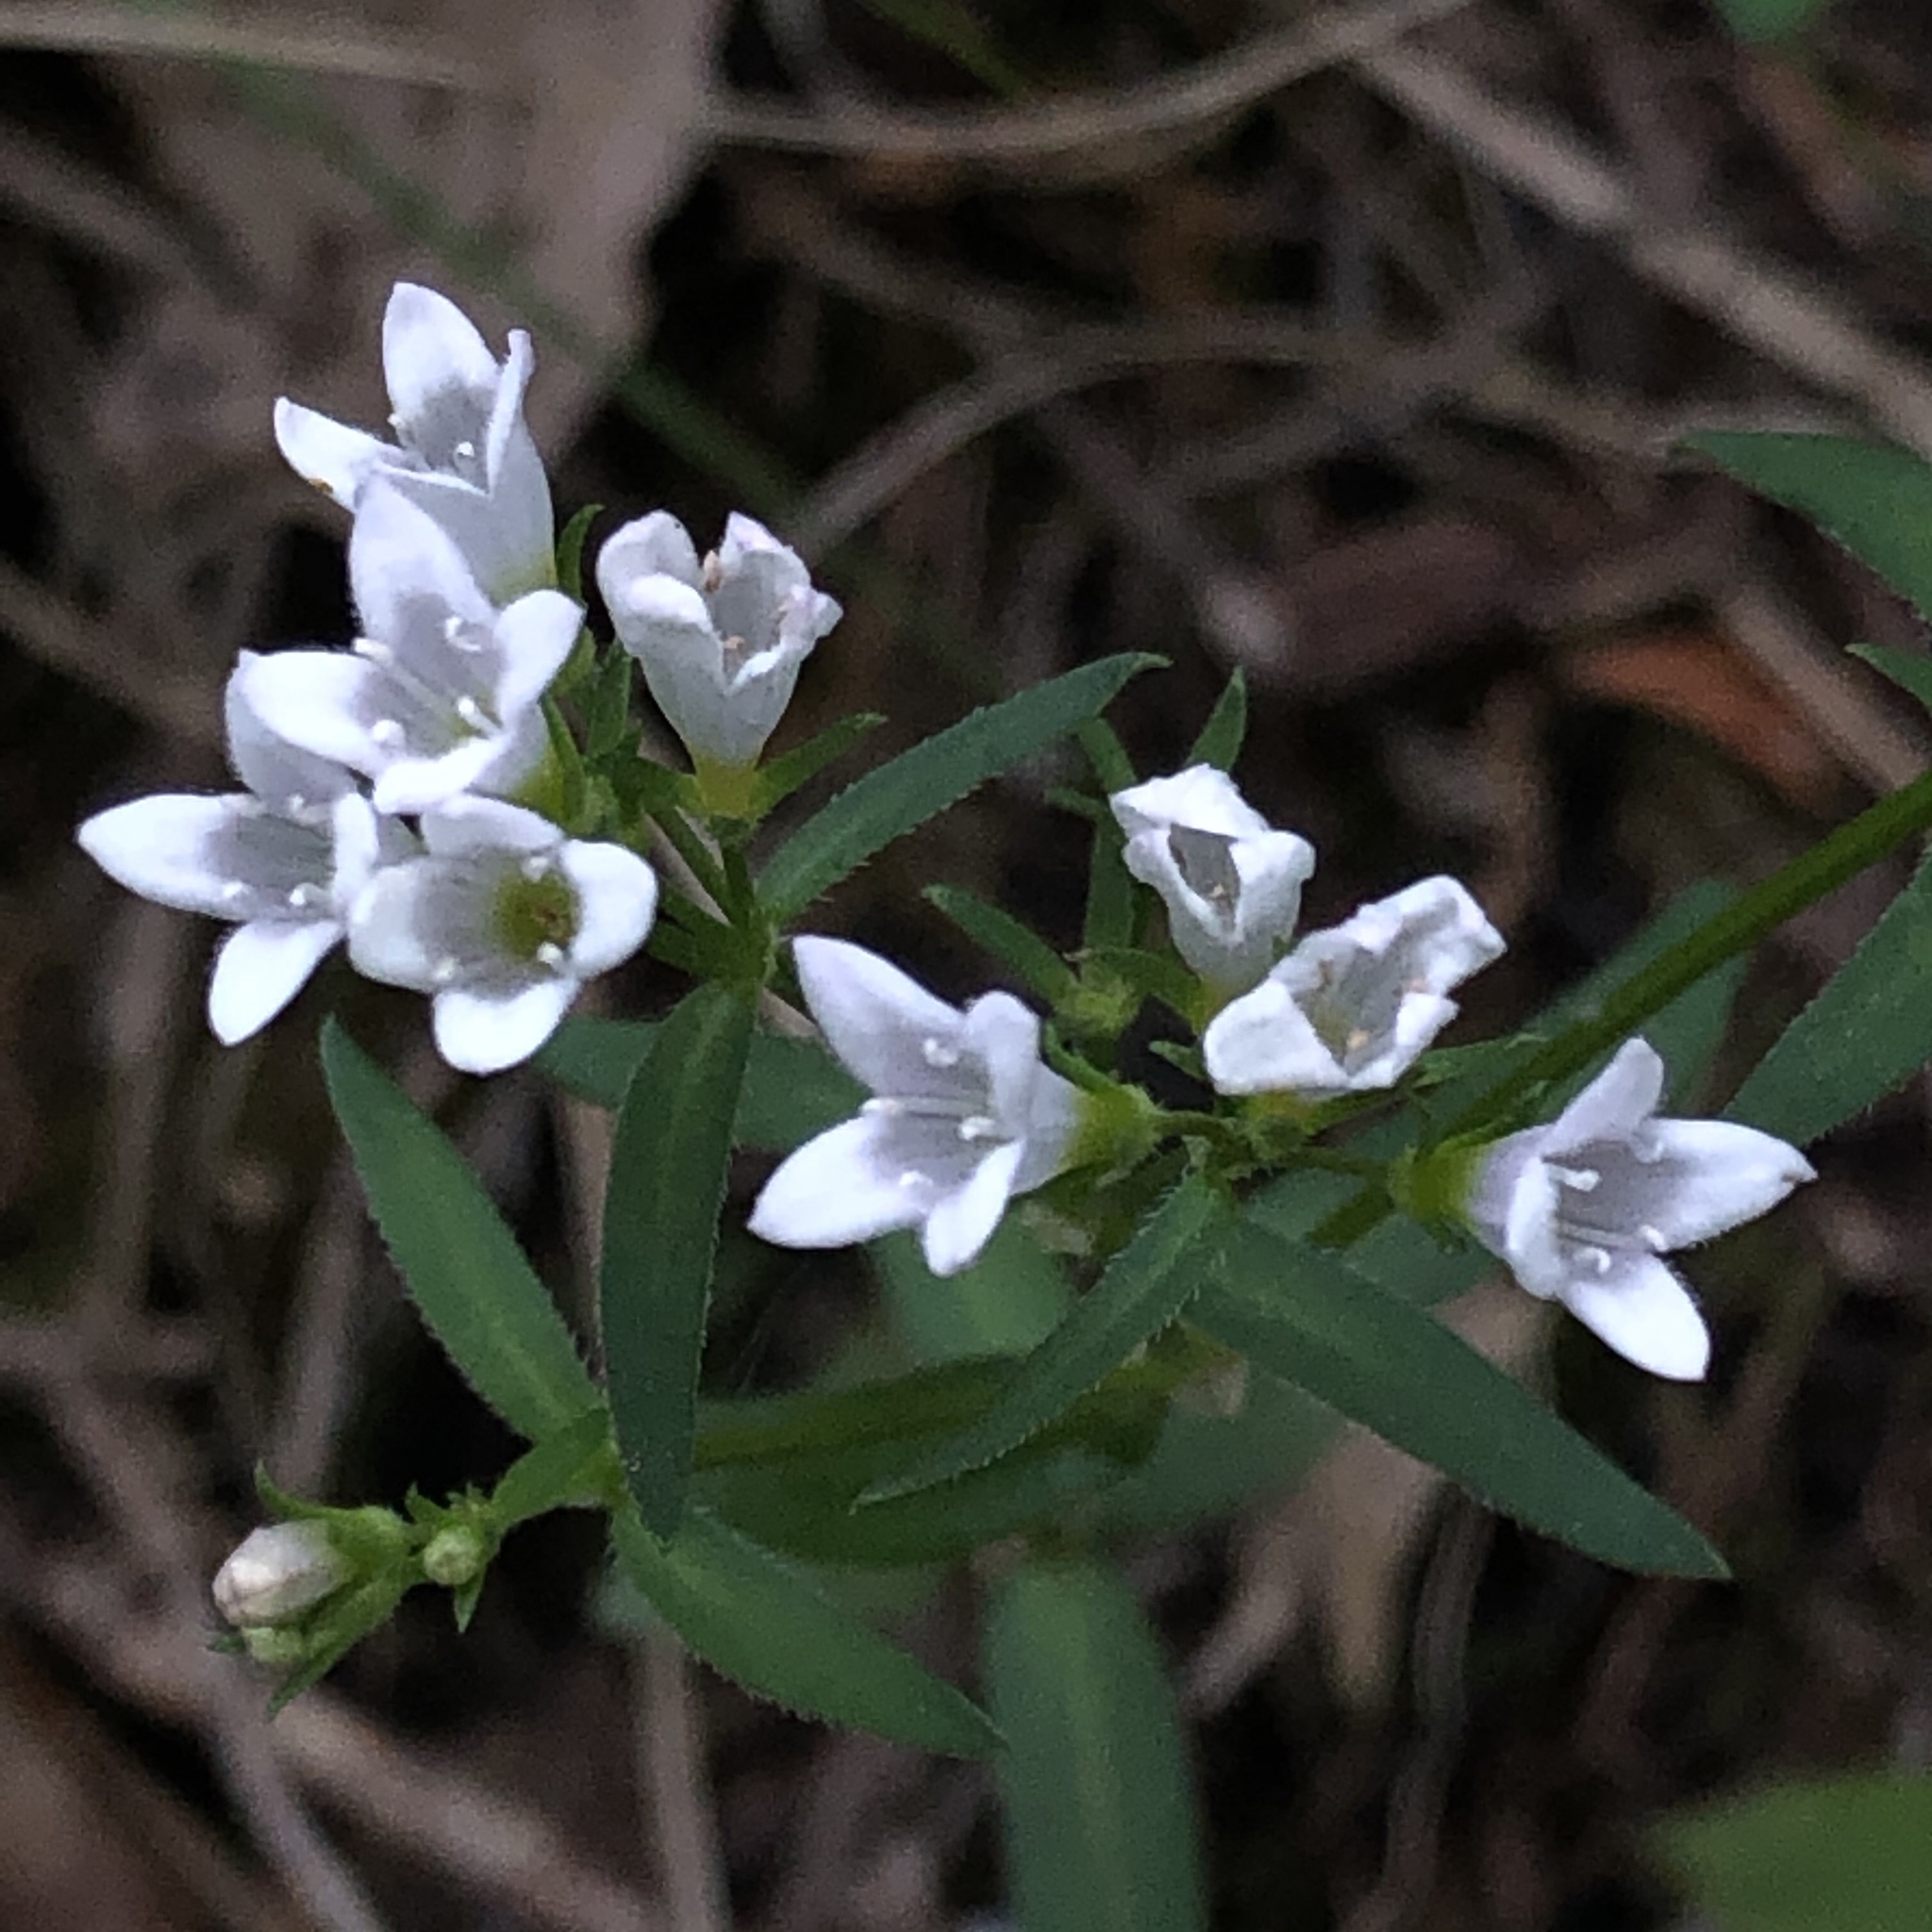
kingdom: Plantae
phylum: Tracheophyta
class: Magnoliopsida
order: Gentianales
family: Rubiaceae
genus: Houstonia
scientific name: Houstonia longifolia
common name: Long-leaved bluets
